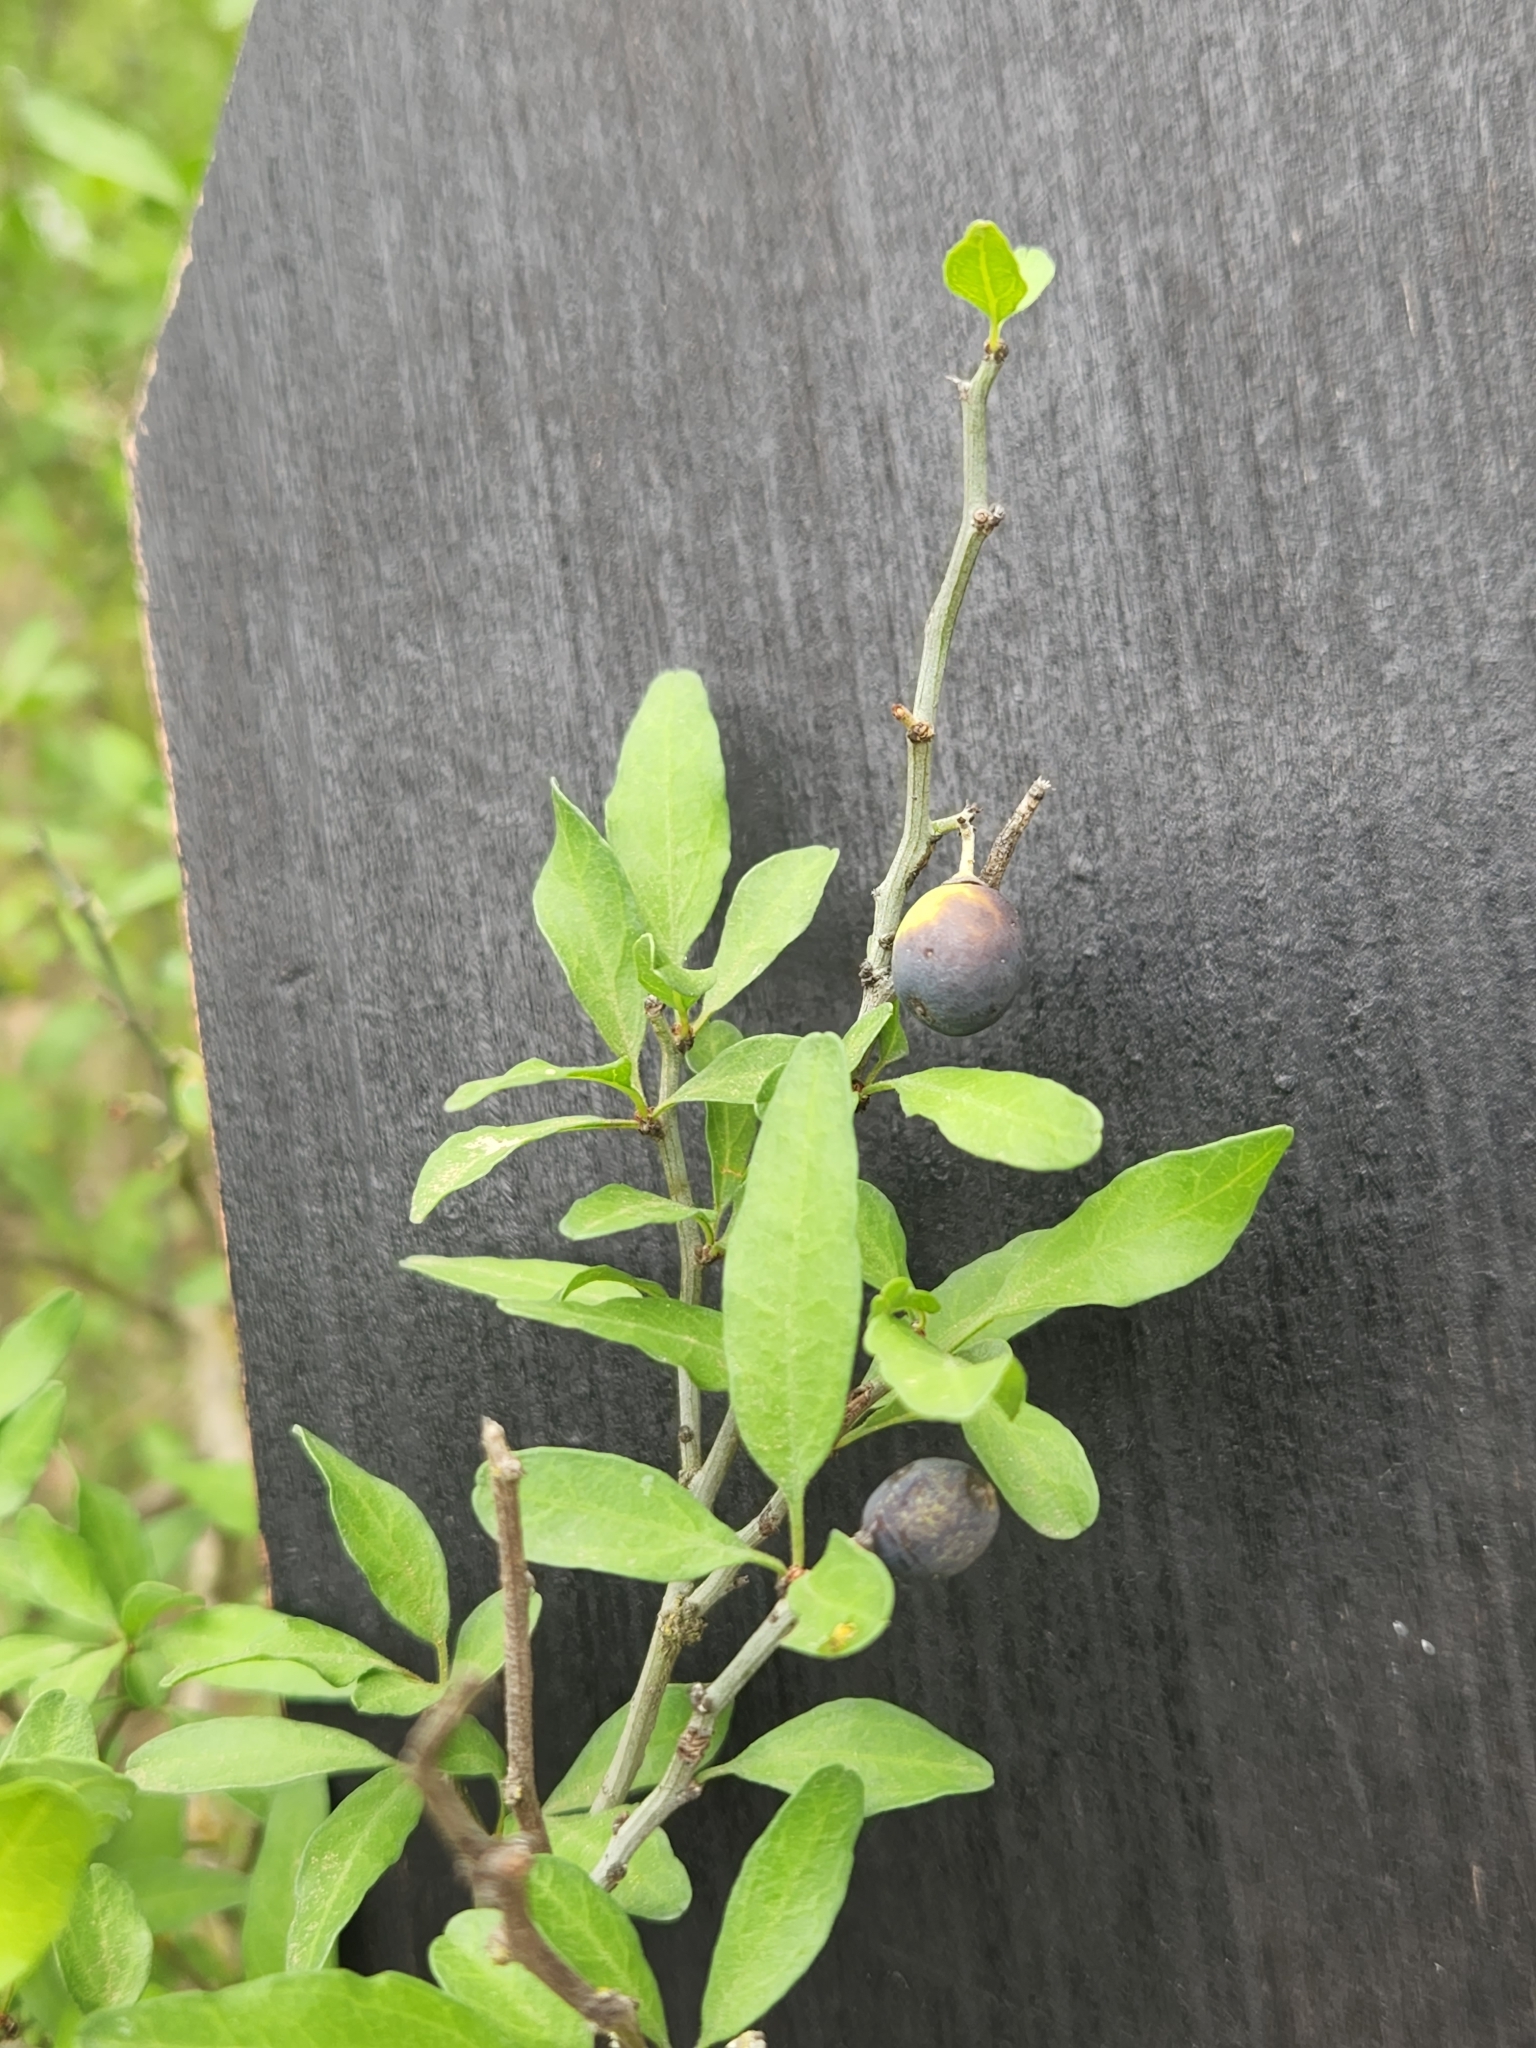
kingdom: Plantae
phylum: Tracheophyta
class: Magnoliopsida
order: Rosales
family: Rhamnaceae
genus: Sarcomphalus
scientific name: Sarcomphalus obtusifolius
